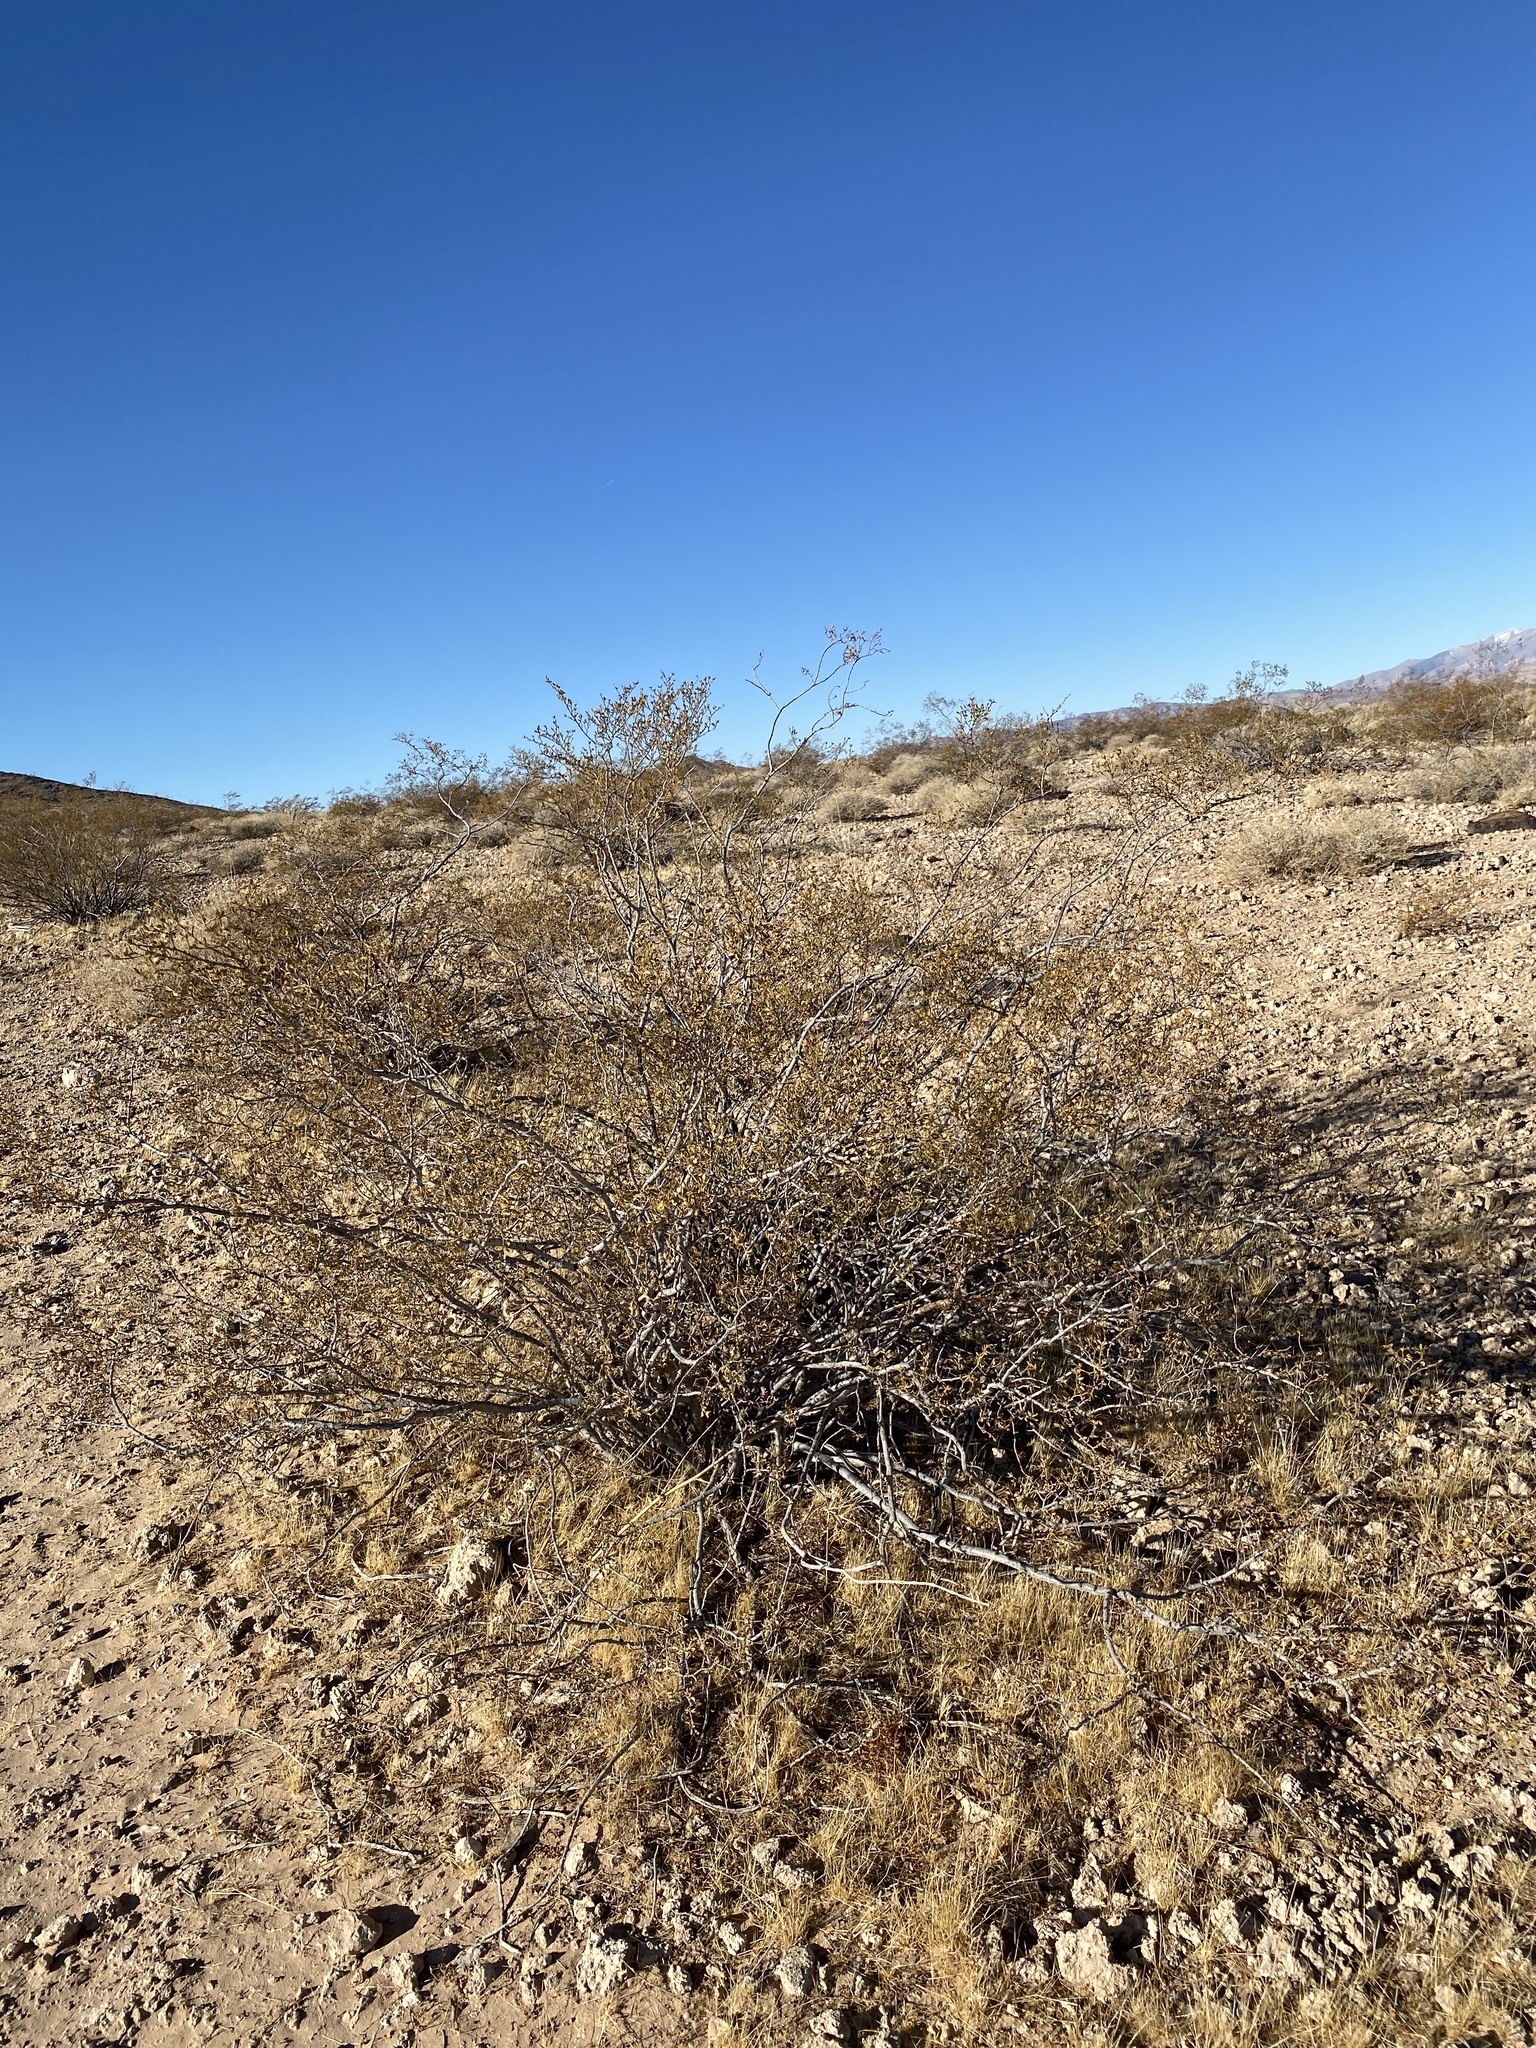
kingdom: Plantae
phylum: Tracheophyta
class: Magnoliopsida
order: Zygophyllales
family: Zygophyllaceae
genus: Larrea
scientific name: Larrea tridentata
